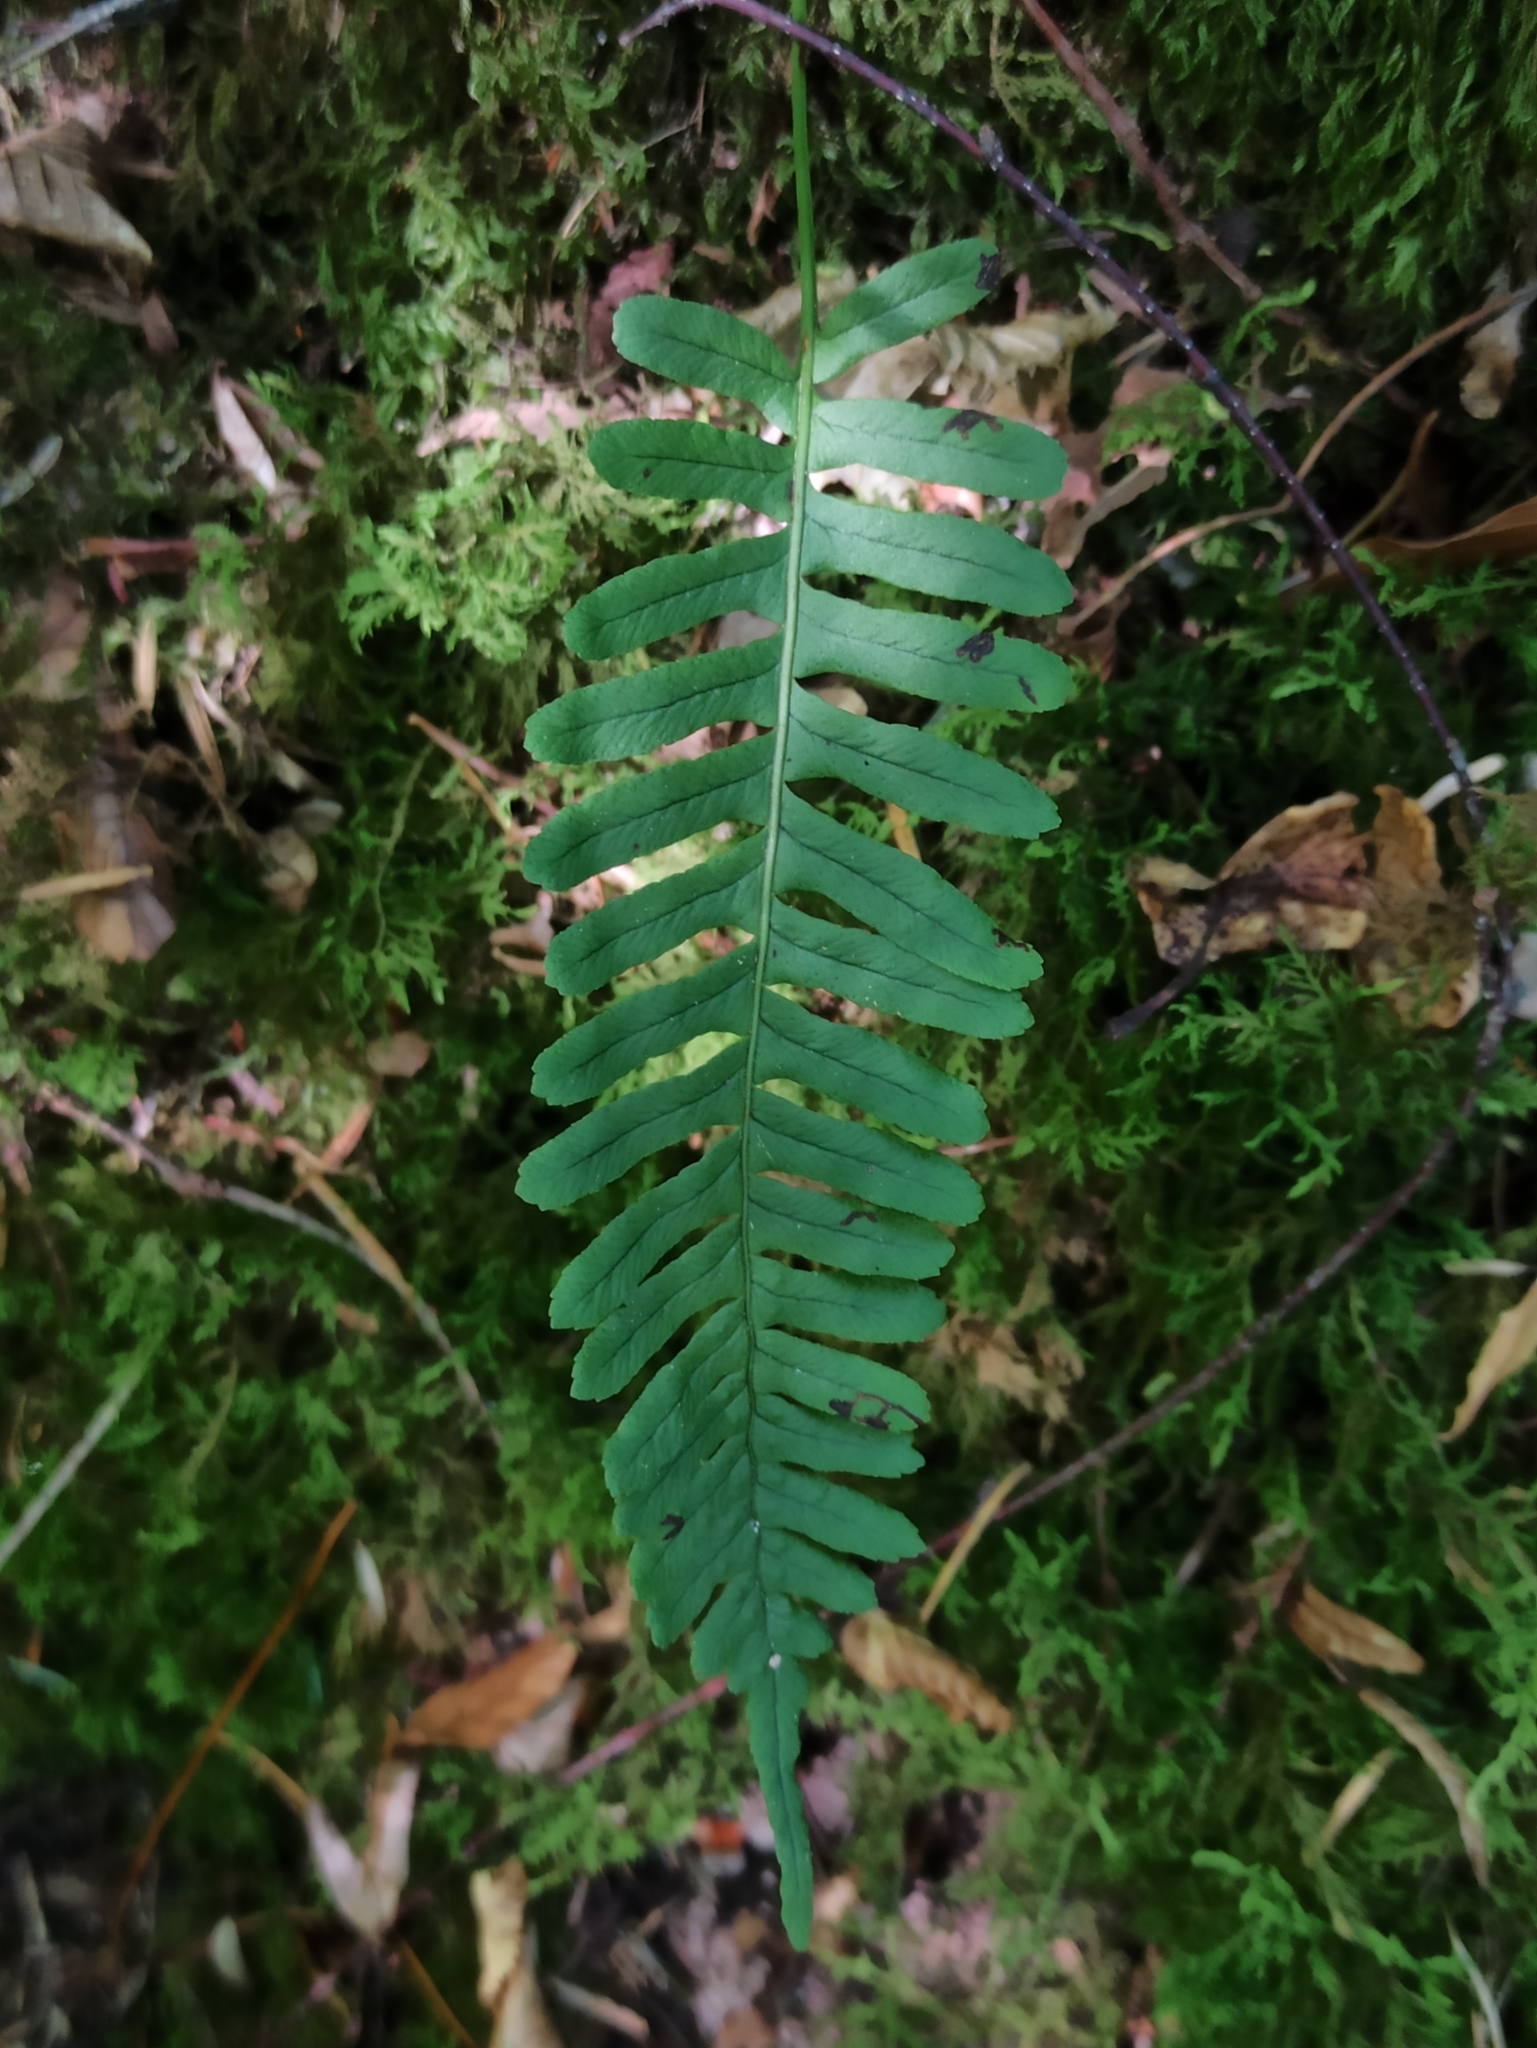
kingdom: Plantae
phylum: Tracheophyta
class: Polypodiopsida
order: Polypodiales
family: Polypodiaceae
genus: Polypodium
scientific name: Polypodium vulgare
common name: Common polypody
